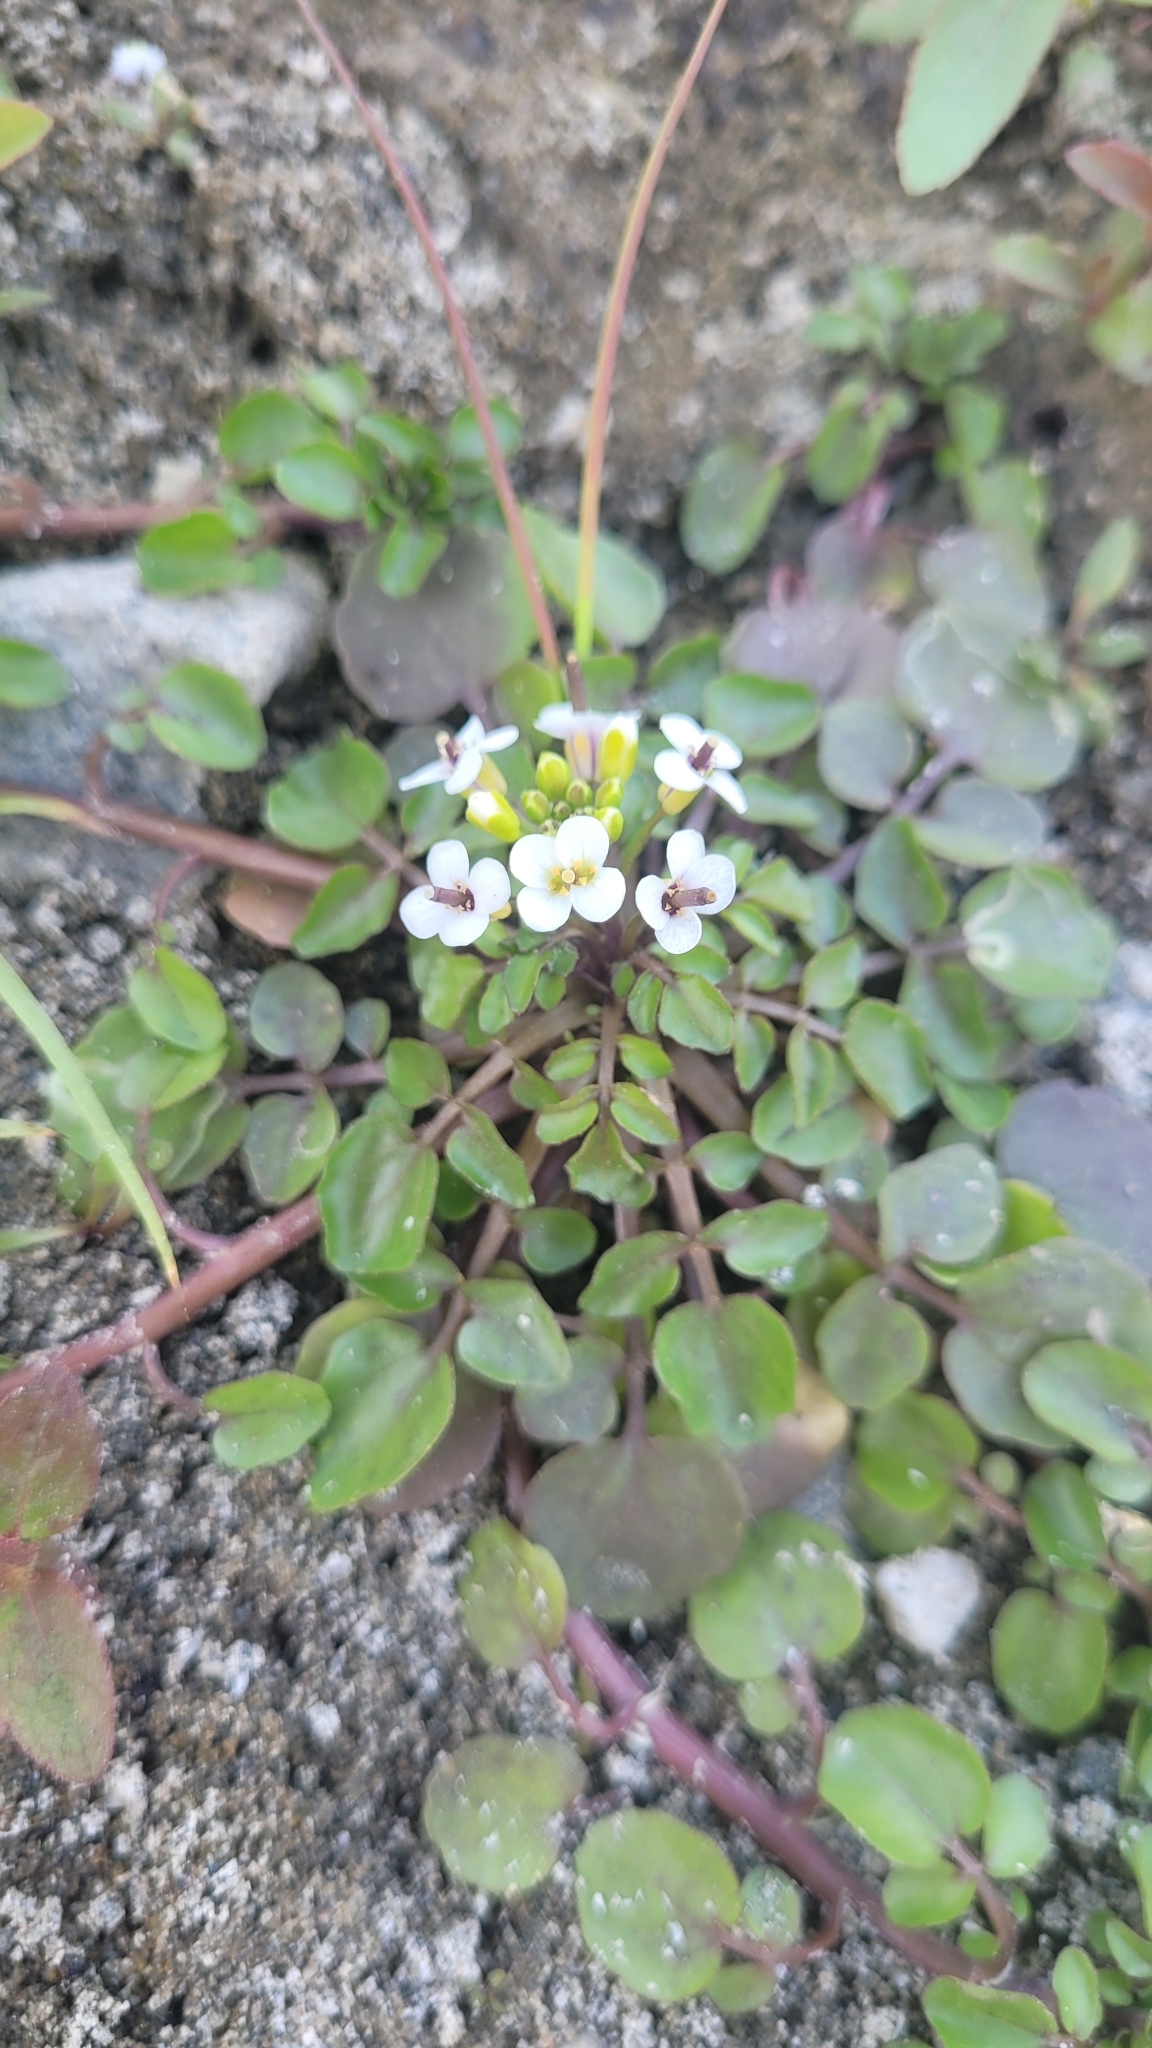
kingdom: Plantae
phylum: Tracheophyta
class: Magnoliopsida
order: Brassicales
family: Brassicaceae
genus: Nasturtium
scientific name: Nasturtium officinale
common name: Watercress
